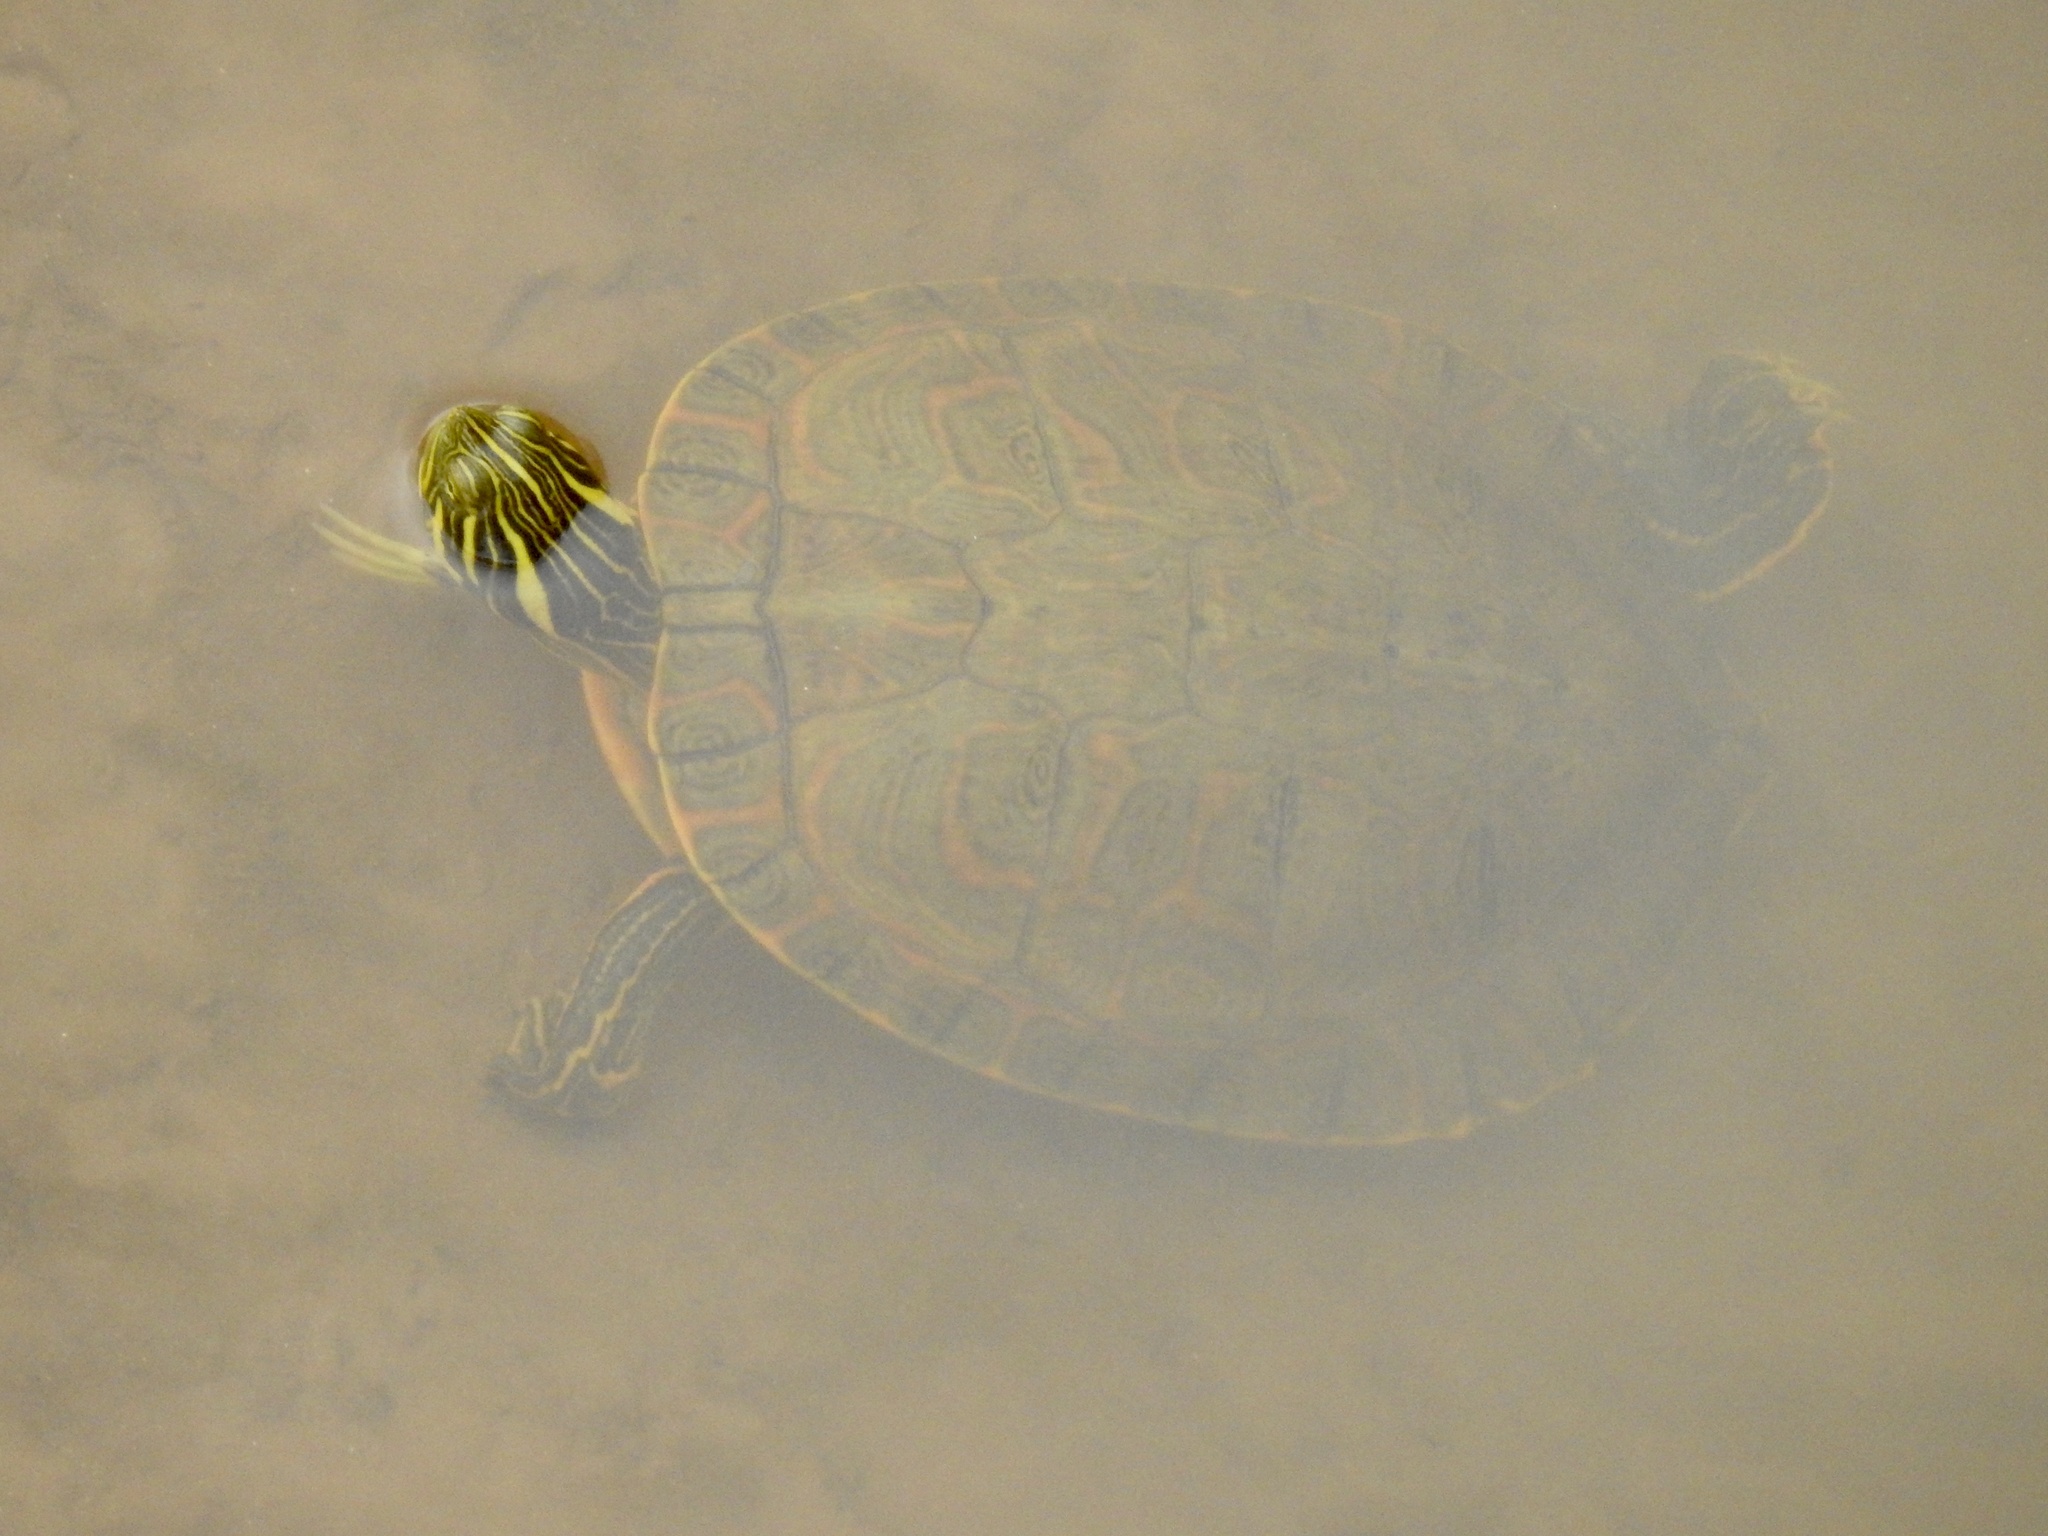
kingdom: Animalia
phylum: Chordata
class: Testudines
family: Emydidae
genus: Pseudemys
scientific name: Pseudemys concinna
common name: Eastern river cooter
